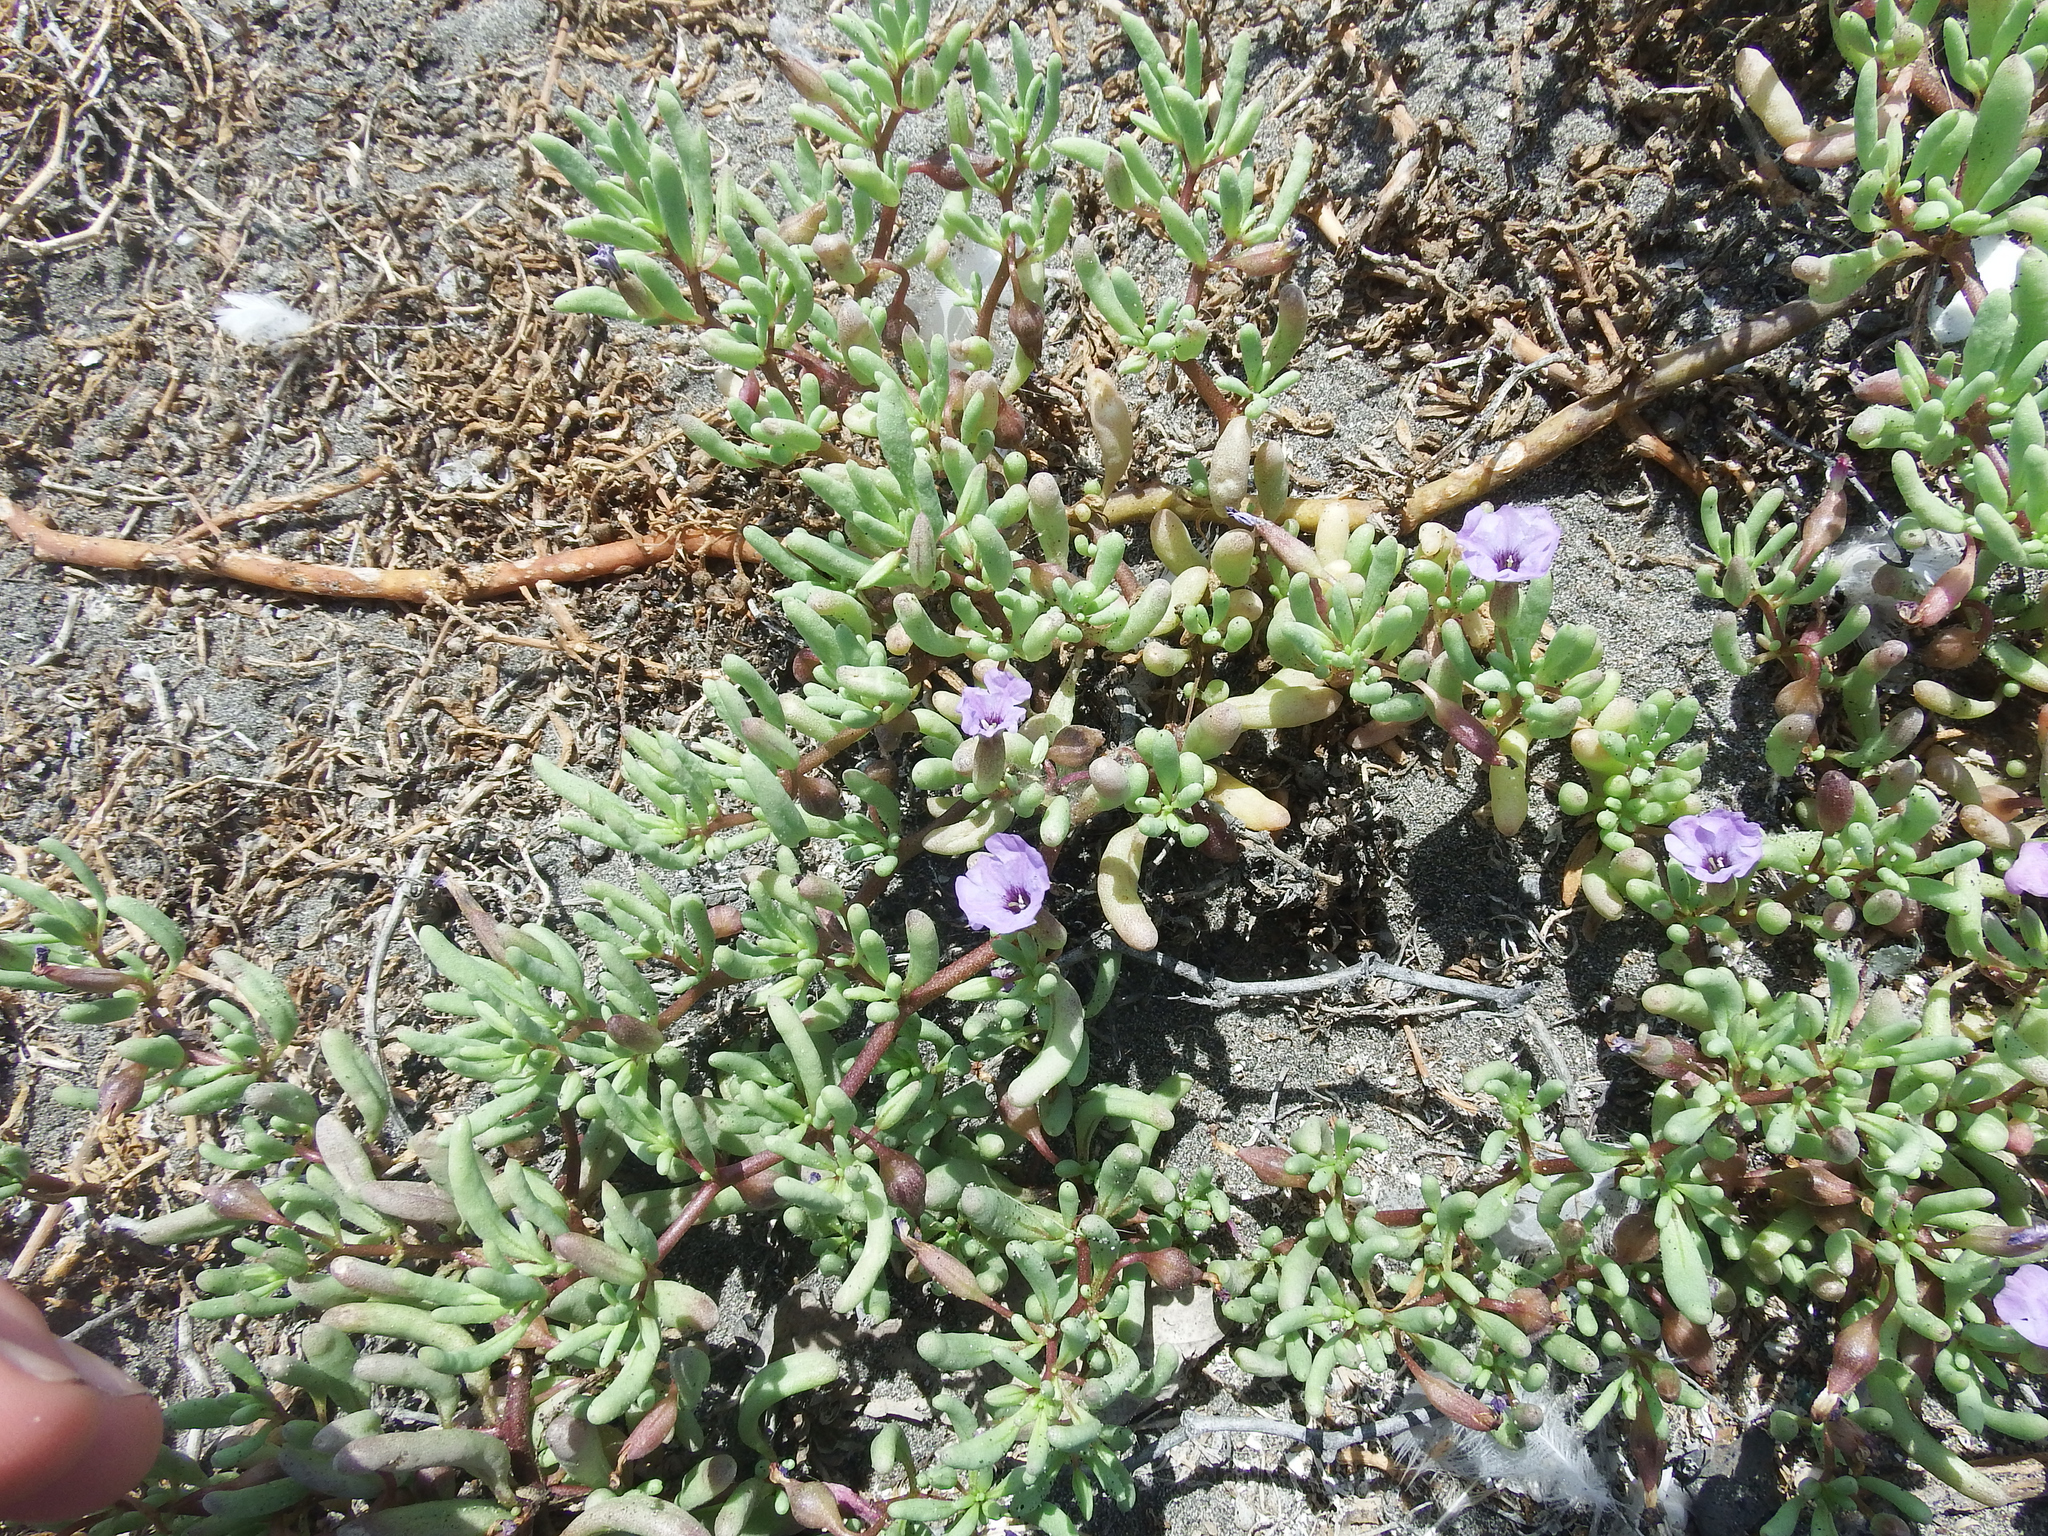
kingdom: Plantae
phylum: Tracheophyta
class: Magnoliopsida
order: Solanales
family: Solanaceae
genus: Nolana
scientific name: Nolana tarapacana
